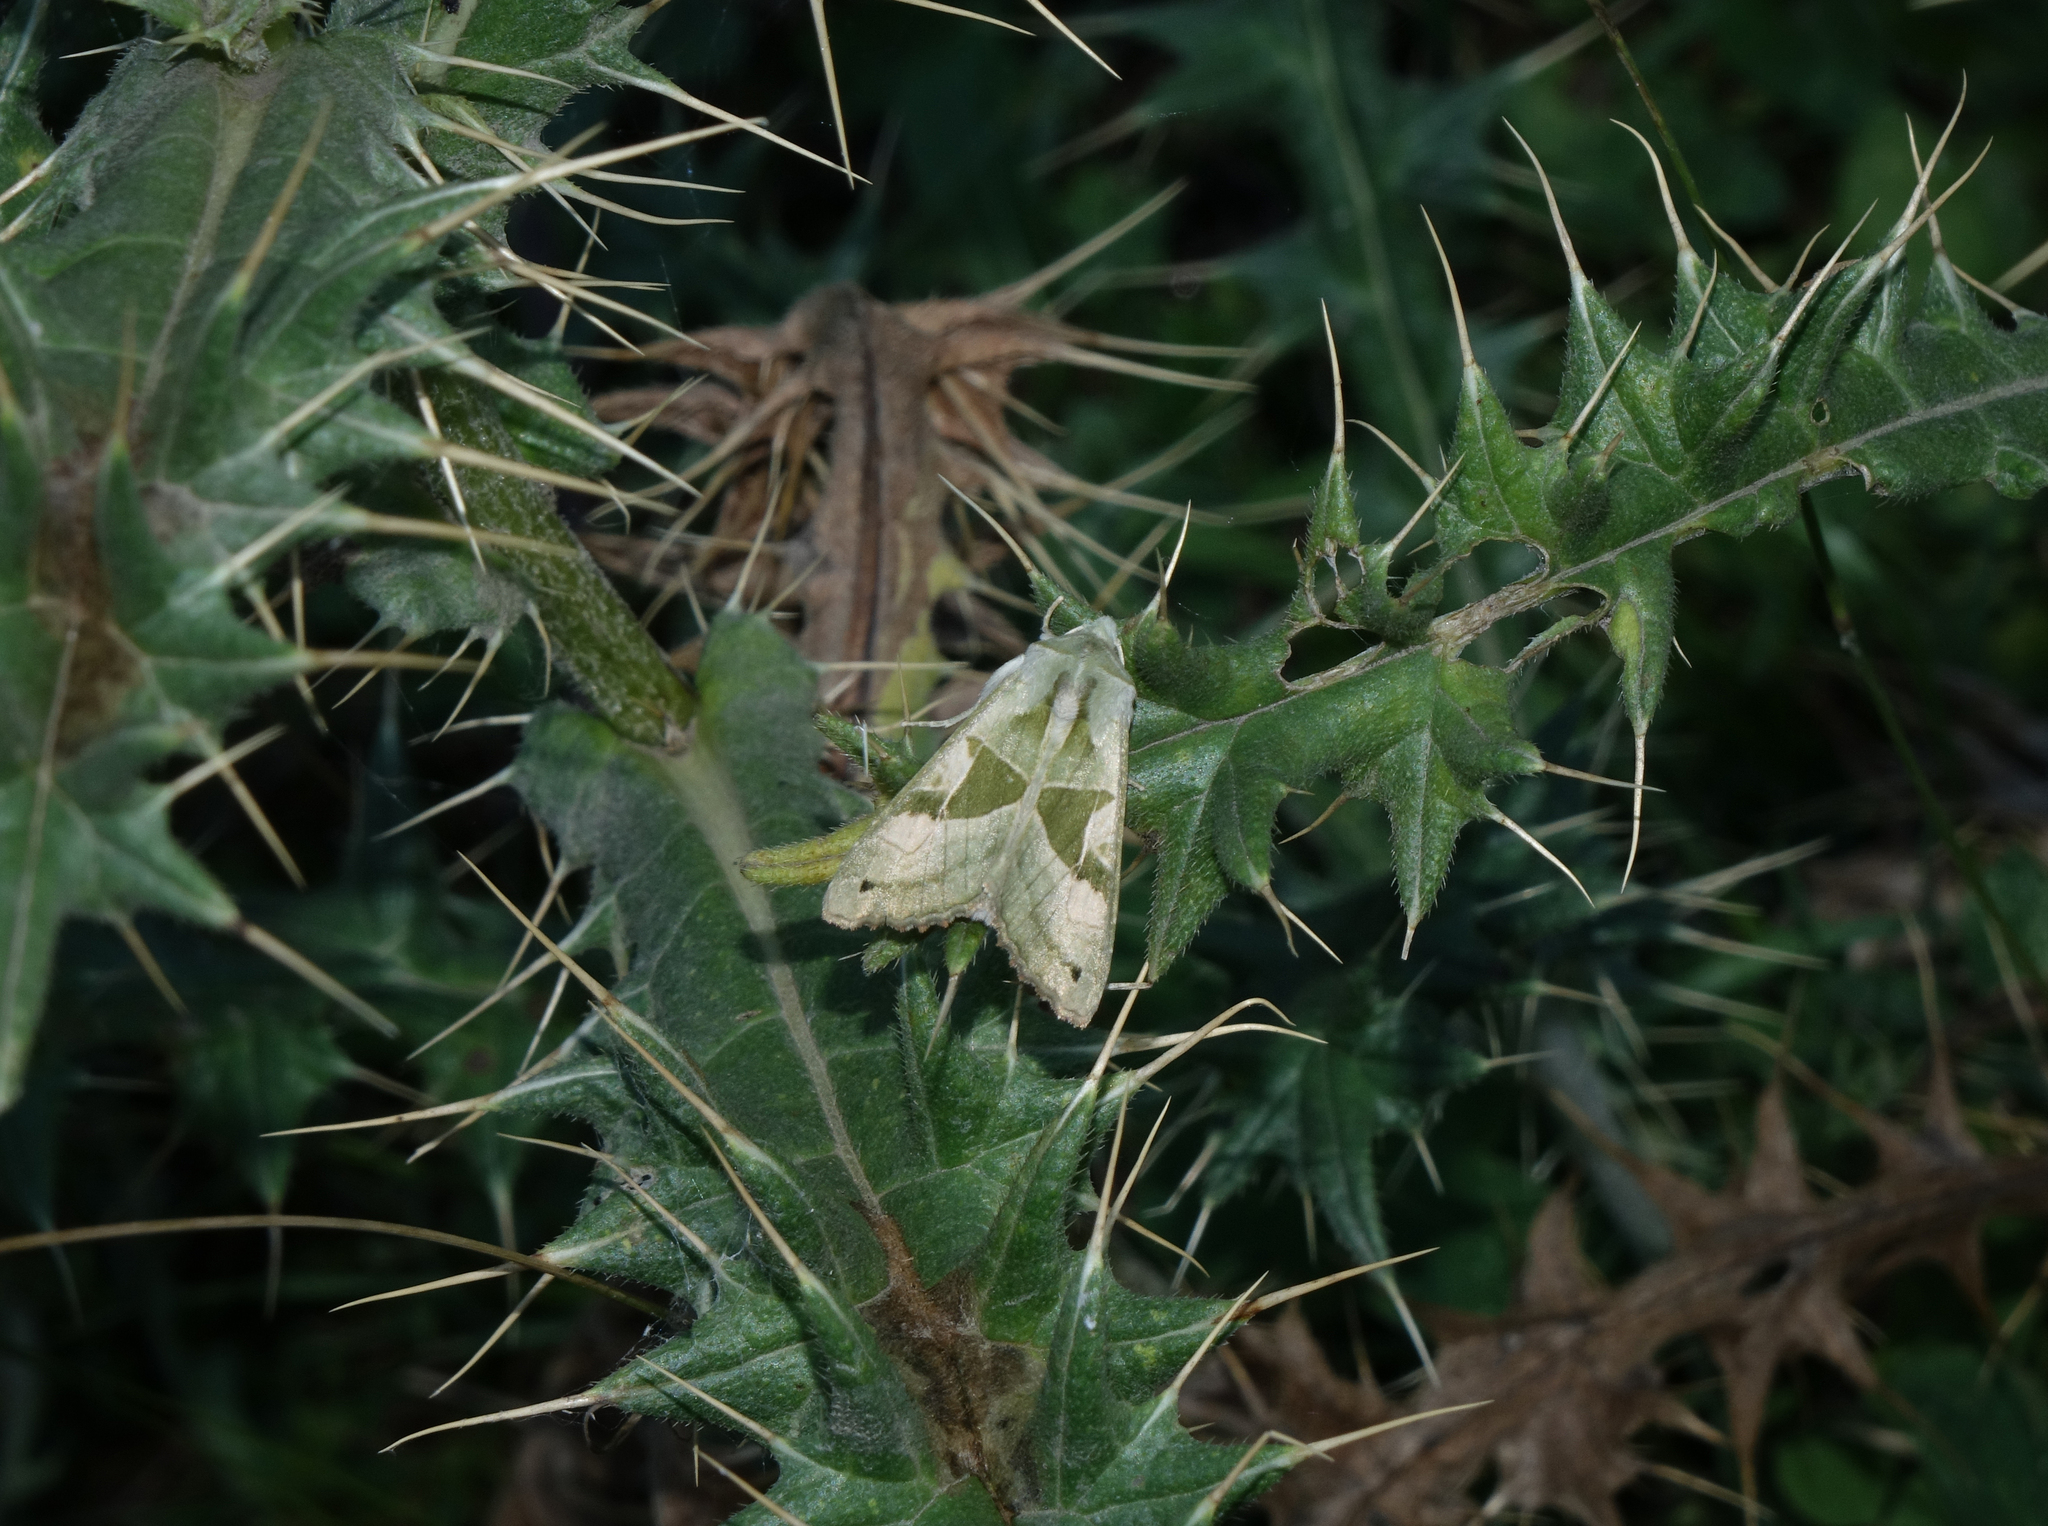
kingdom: Animalia
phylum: Arthropoda
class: Insecta
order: Lepidoptera
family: Noctuidae
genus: Phlogophora
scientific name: Phlogophora scita
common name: Green angle shades
